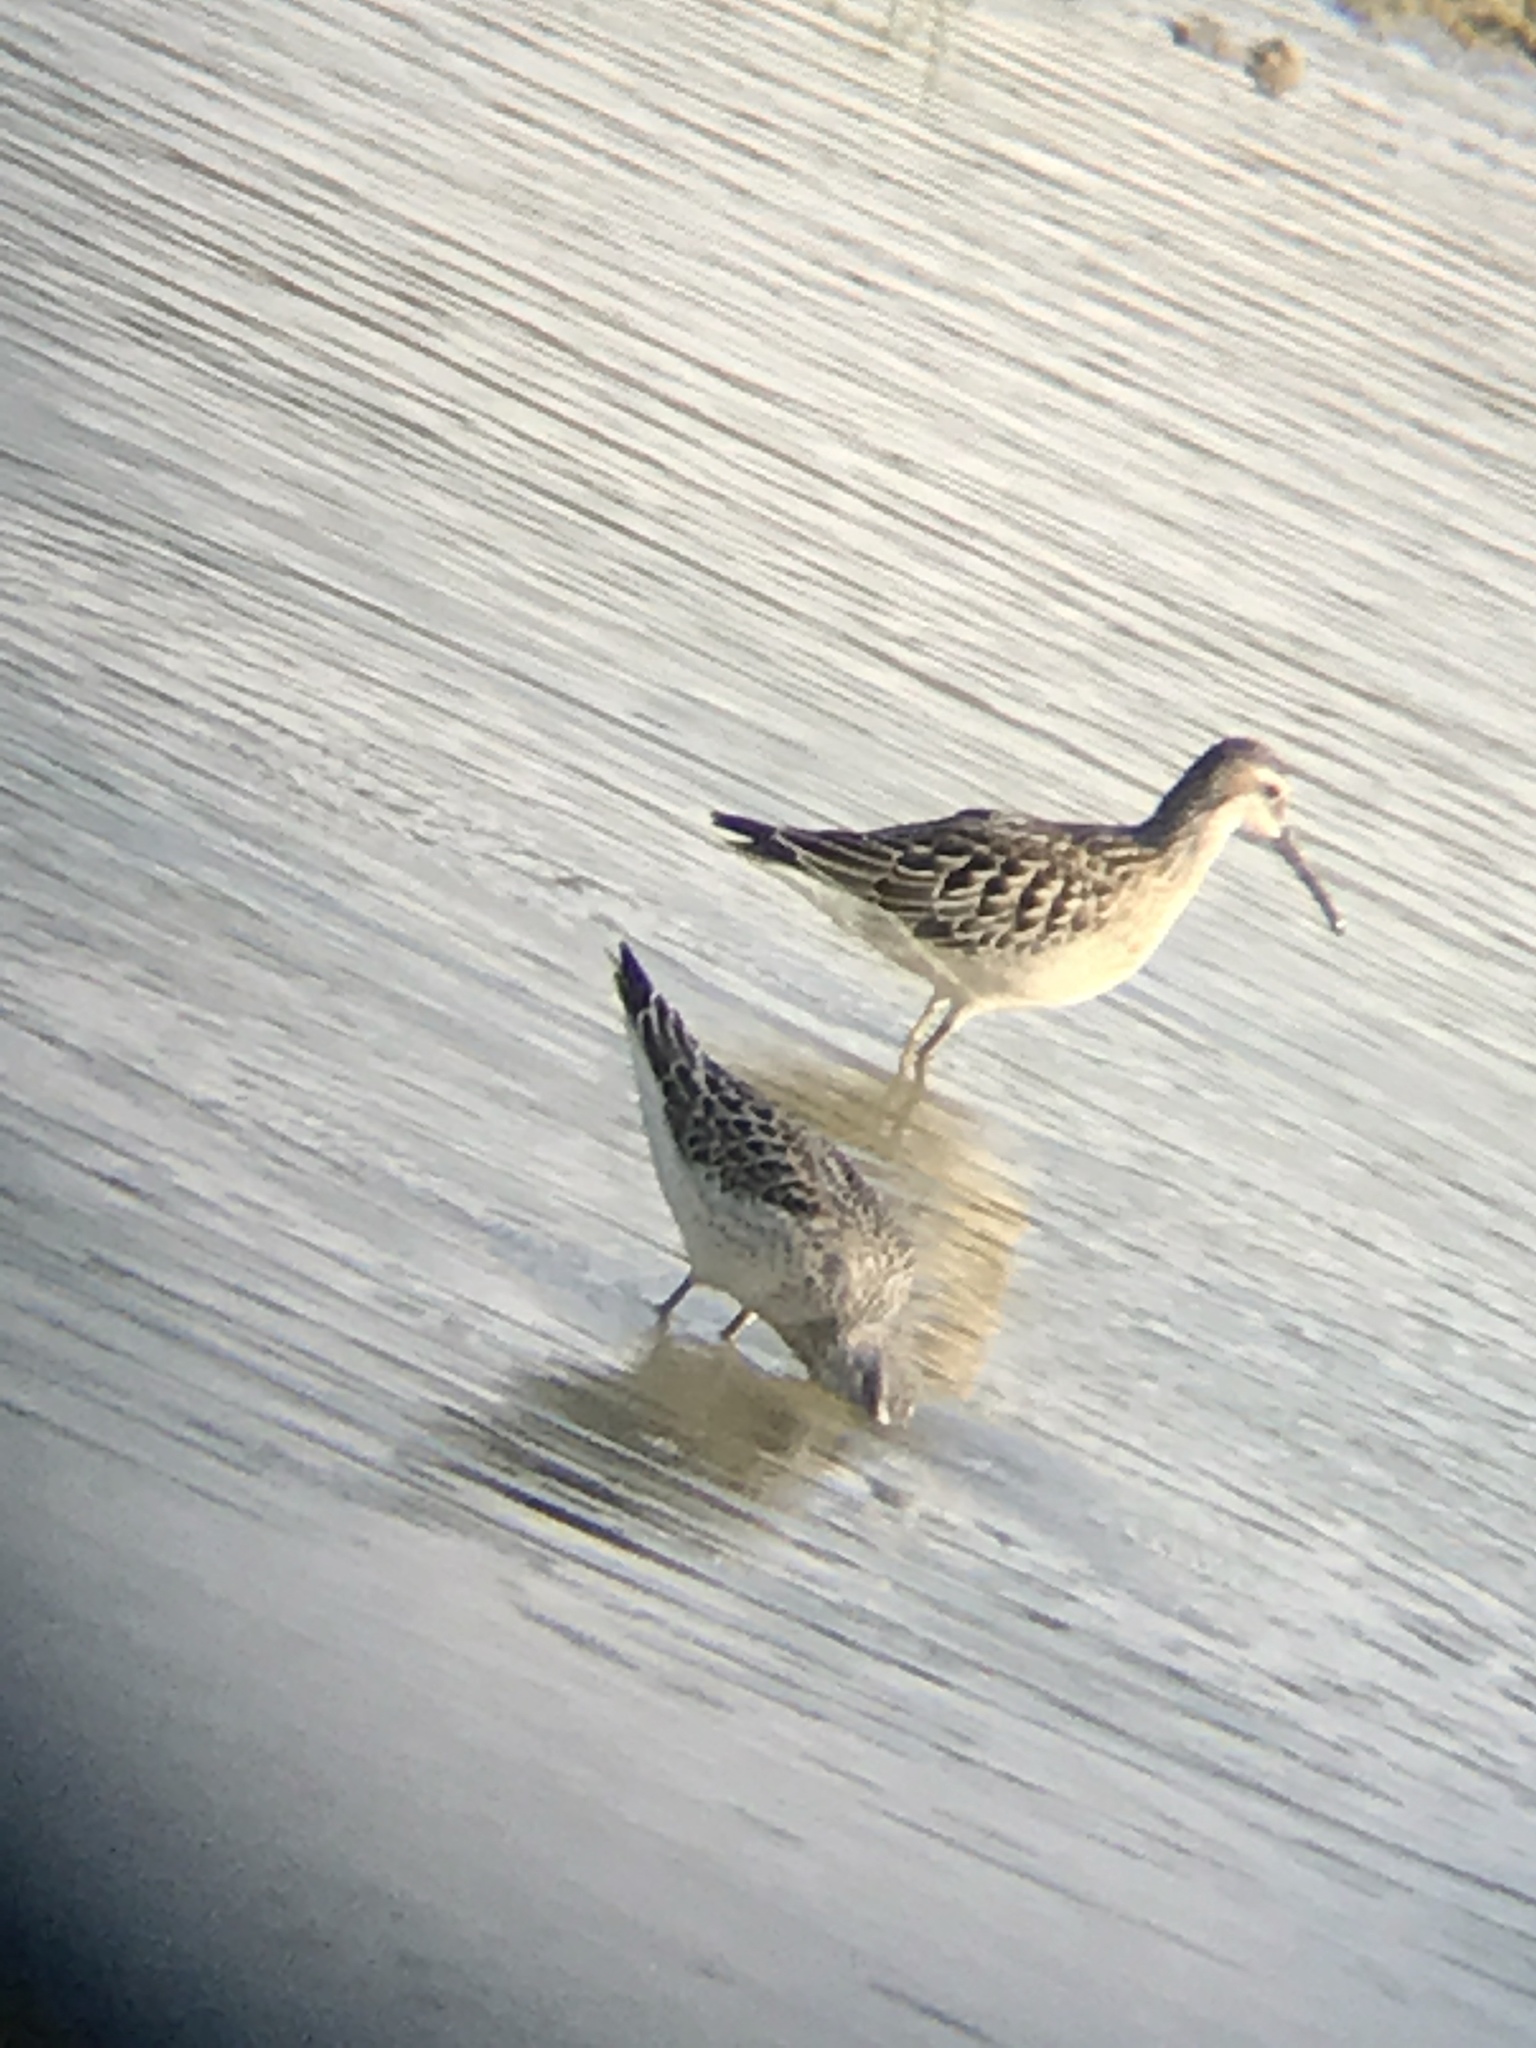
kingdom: Animalia
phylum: Chordata
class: Aves
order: Charadriiformes
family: Scolopacidae
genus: Calidris
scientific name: Calidris himantopus
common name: Stilt sandpiper
